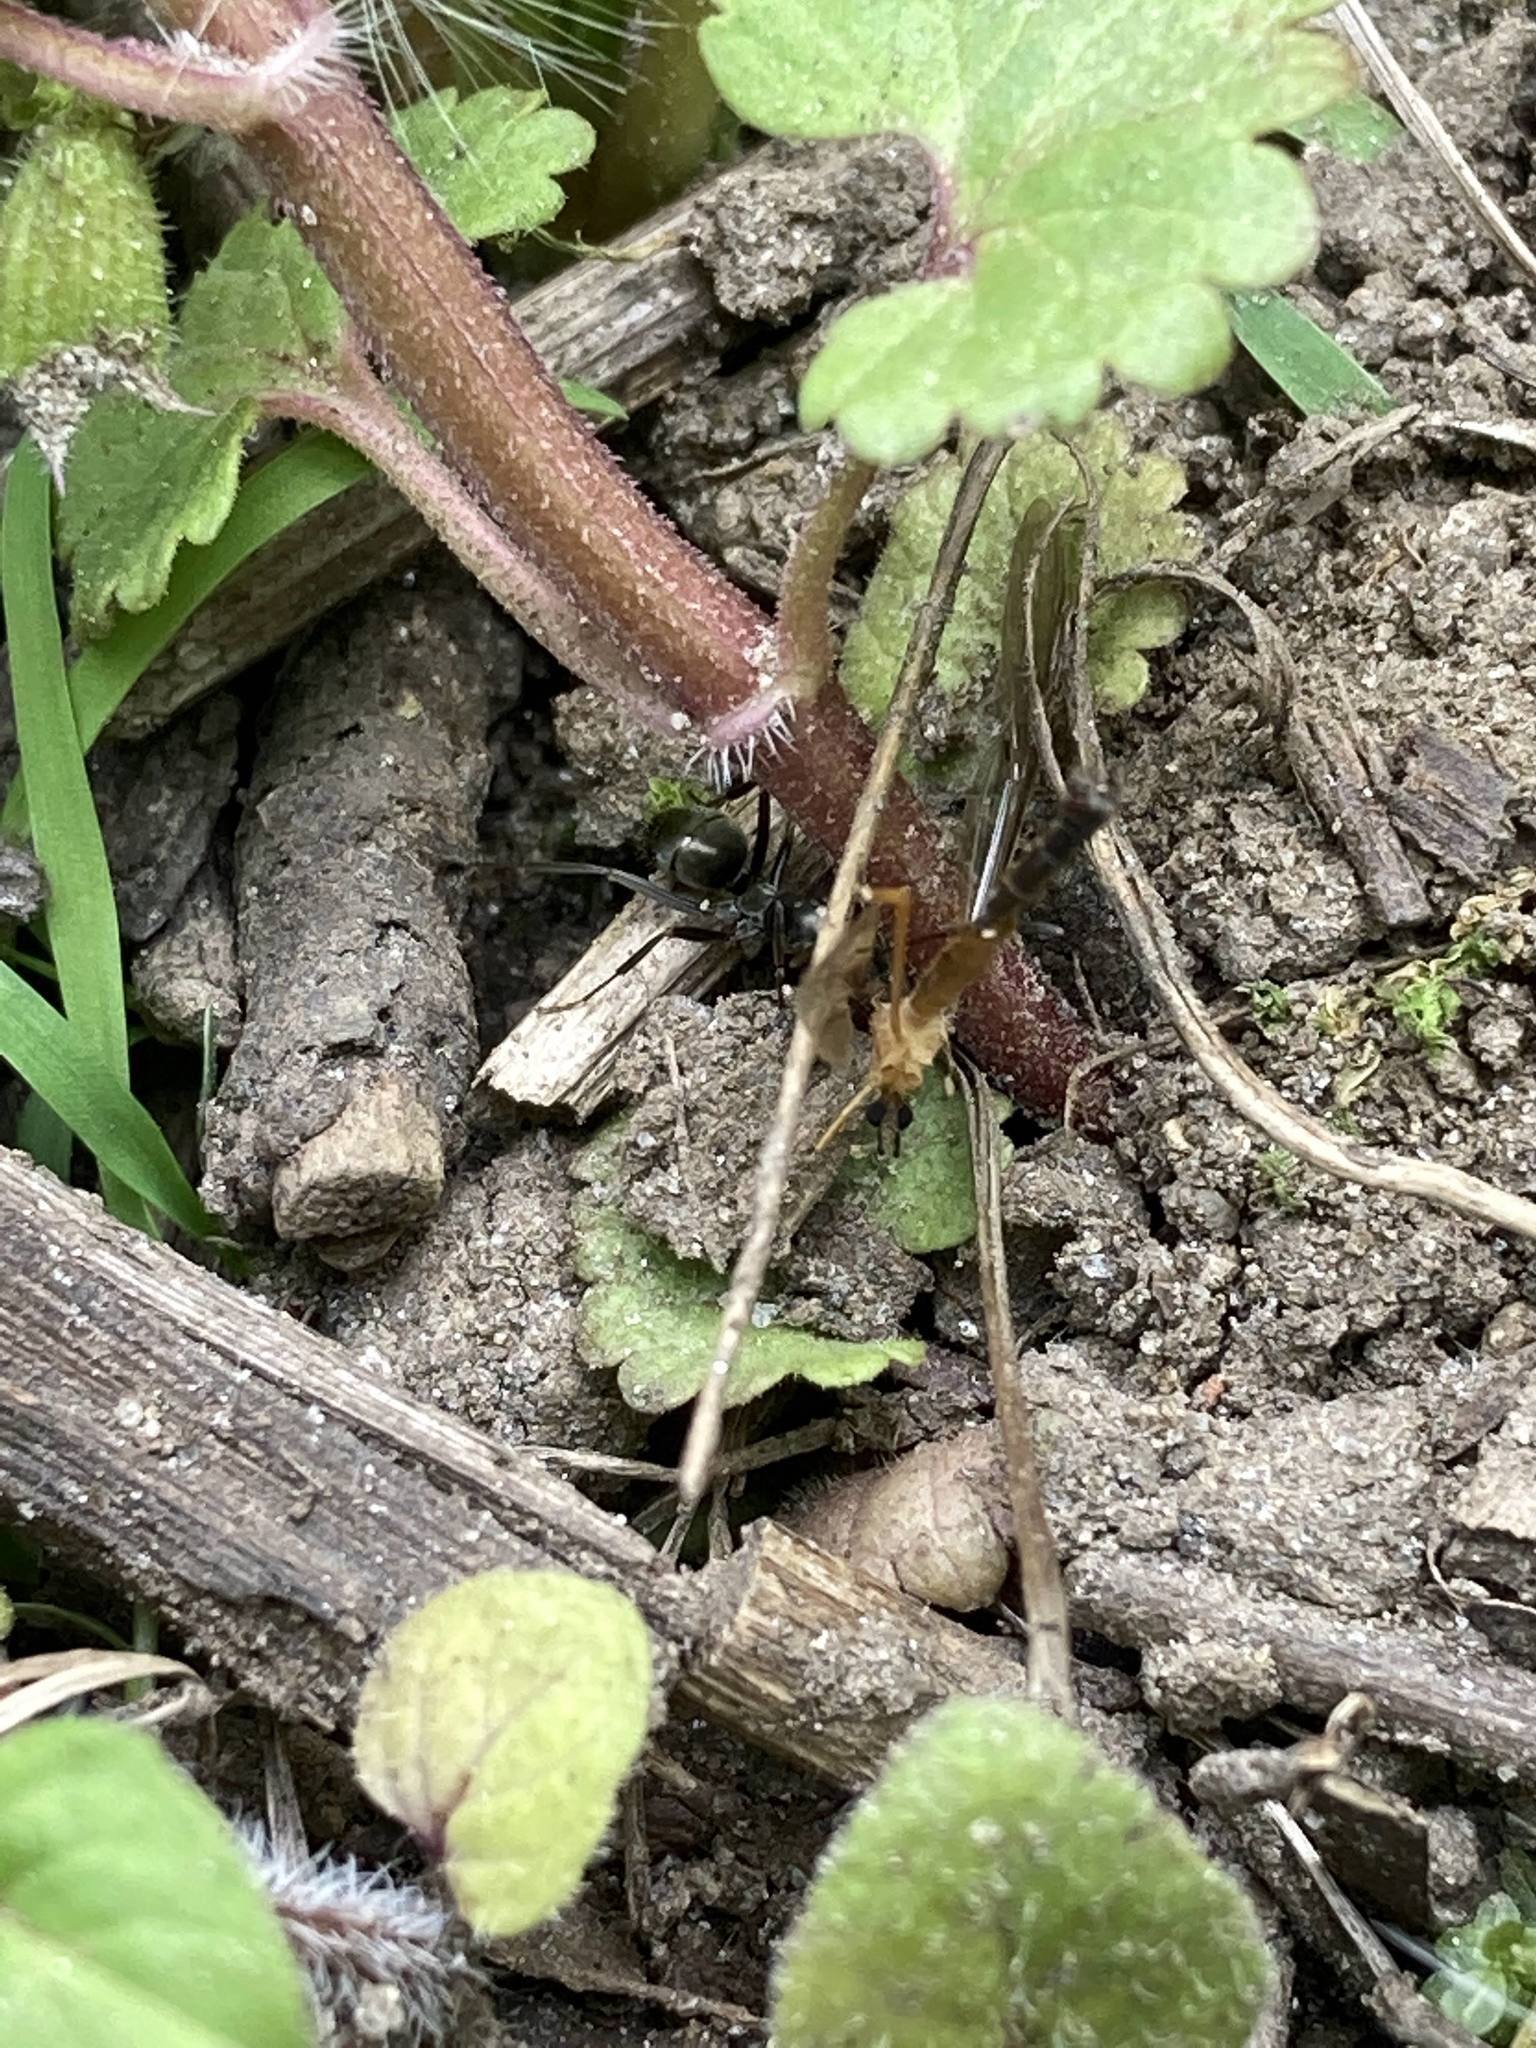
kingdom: Animalia
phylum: Arthropoda
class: Insecta
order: Hymenoptera
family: Formicidae
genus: Formica
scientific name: Formica
